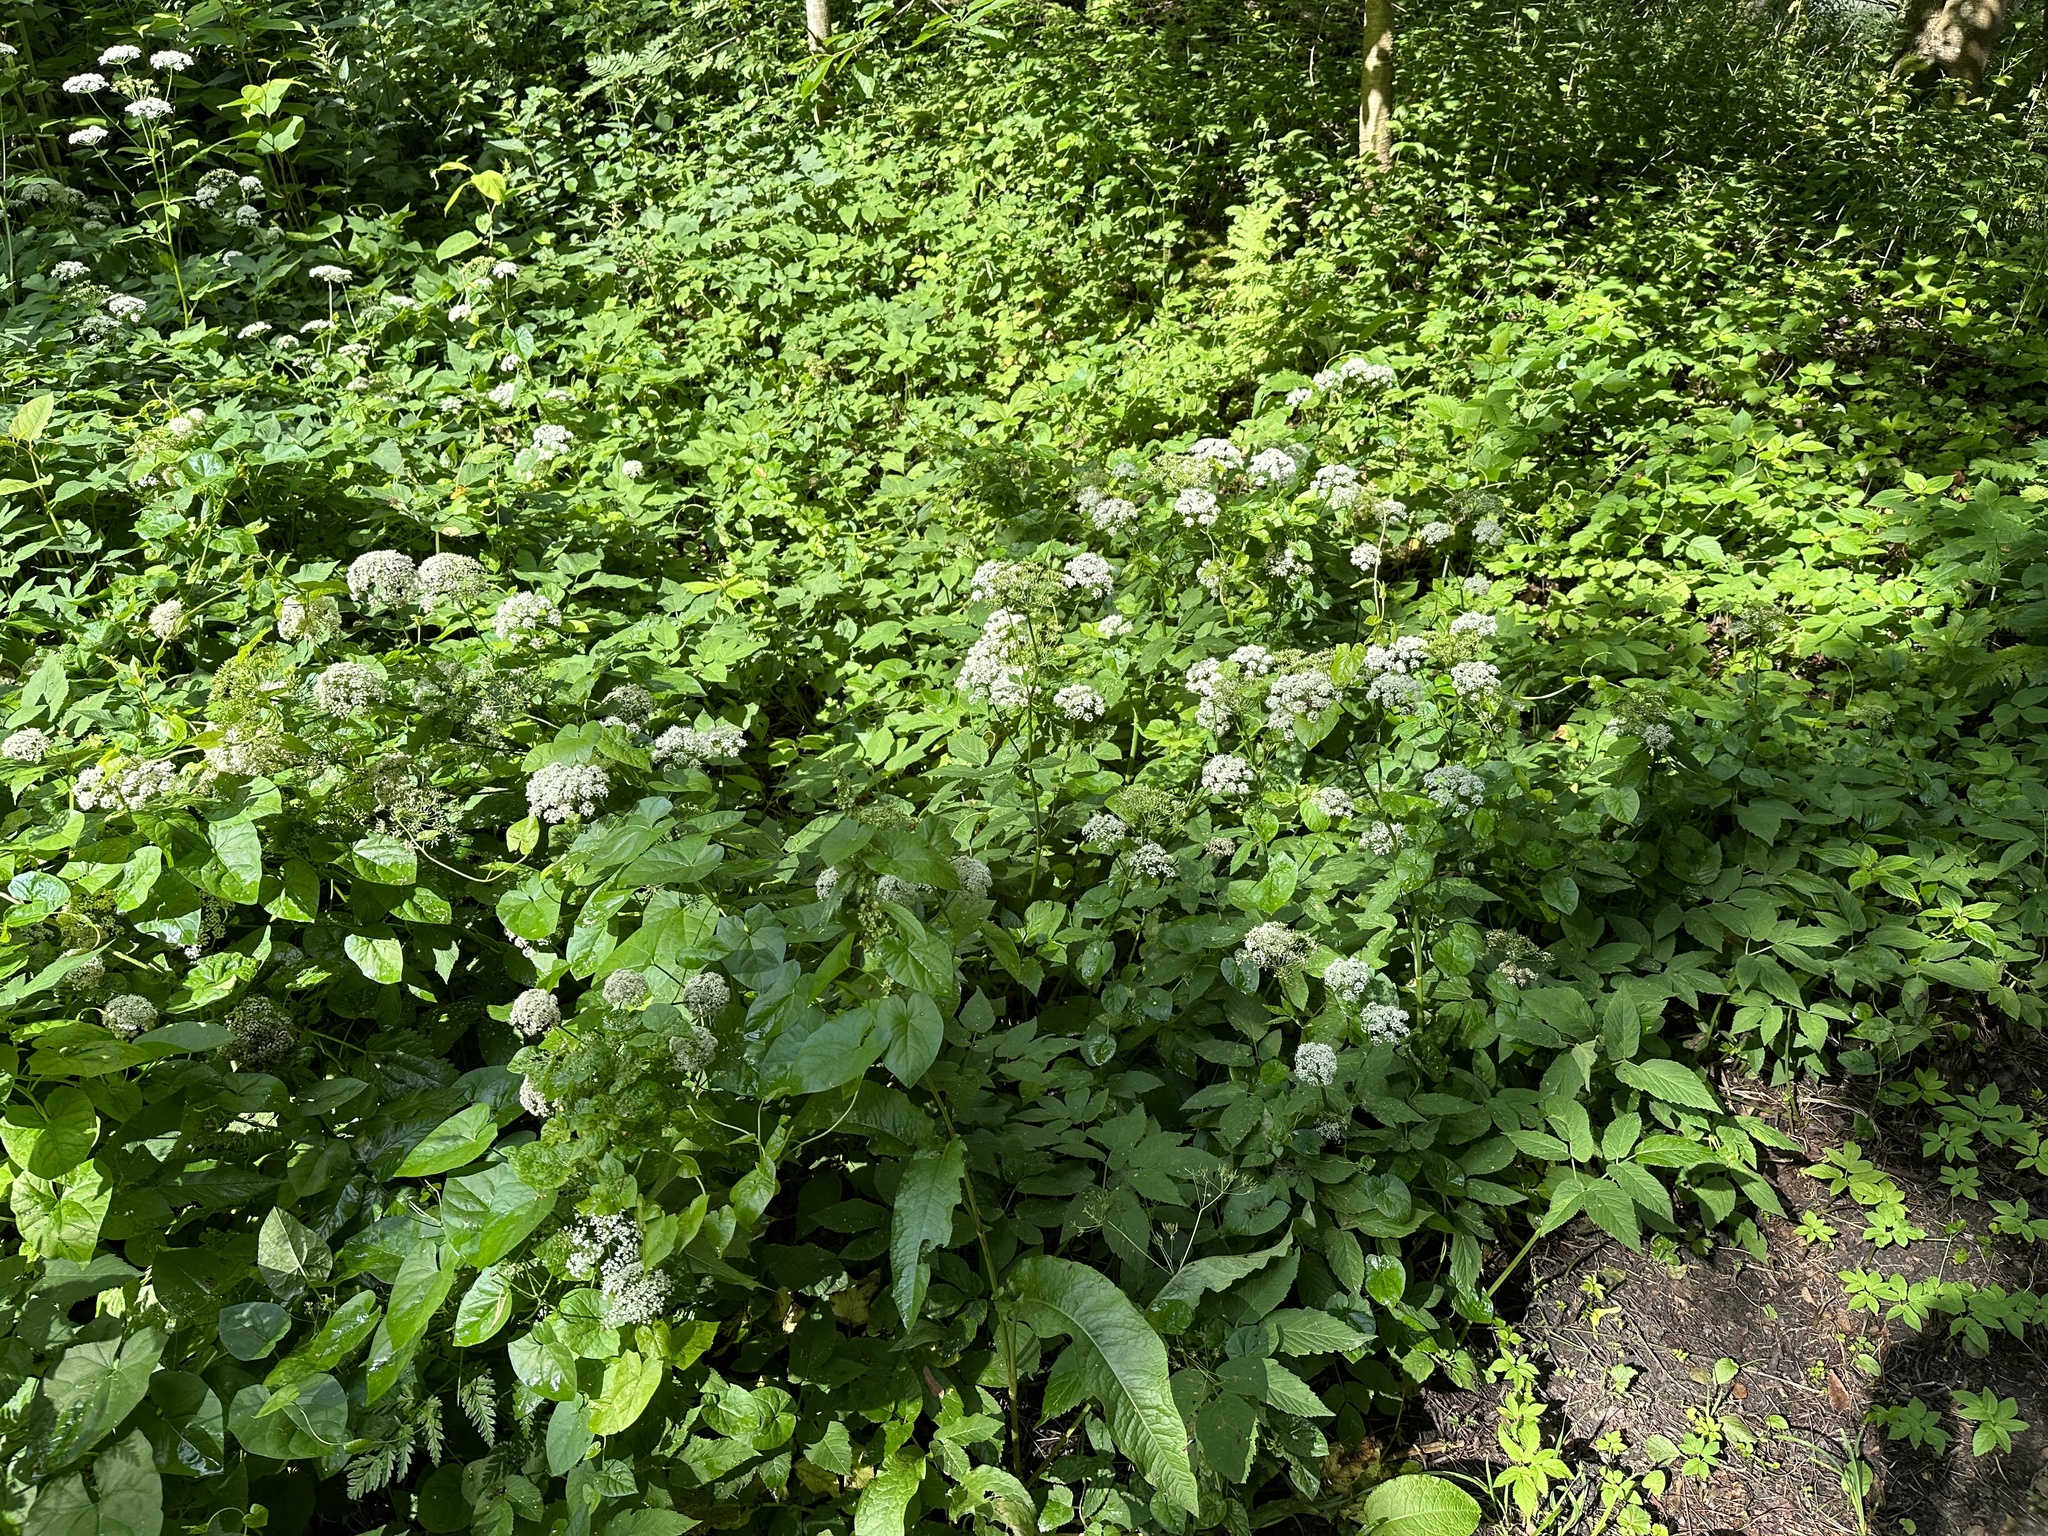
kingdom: Plantae
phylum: Tracheophyta
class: Magnoliopsida
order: Apiales
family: Apiaceae
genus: Aegopodium
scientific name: Aegopodium podagraria
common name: Ground-elder
